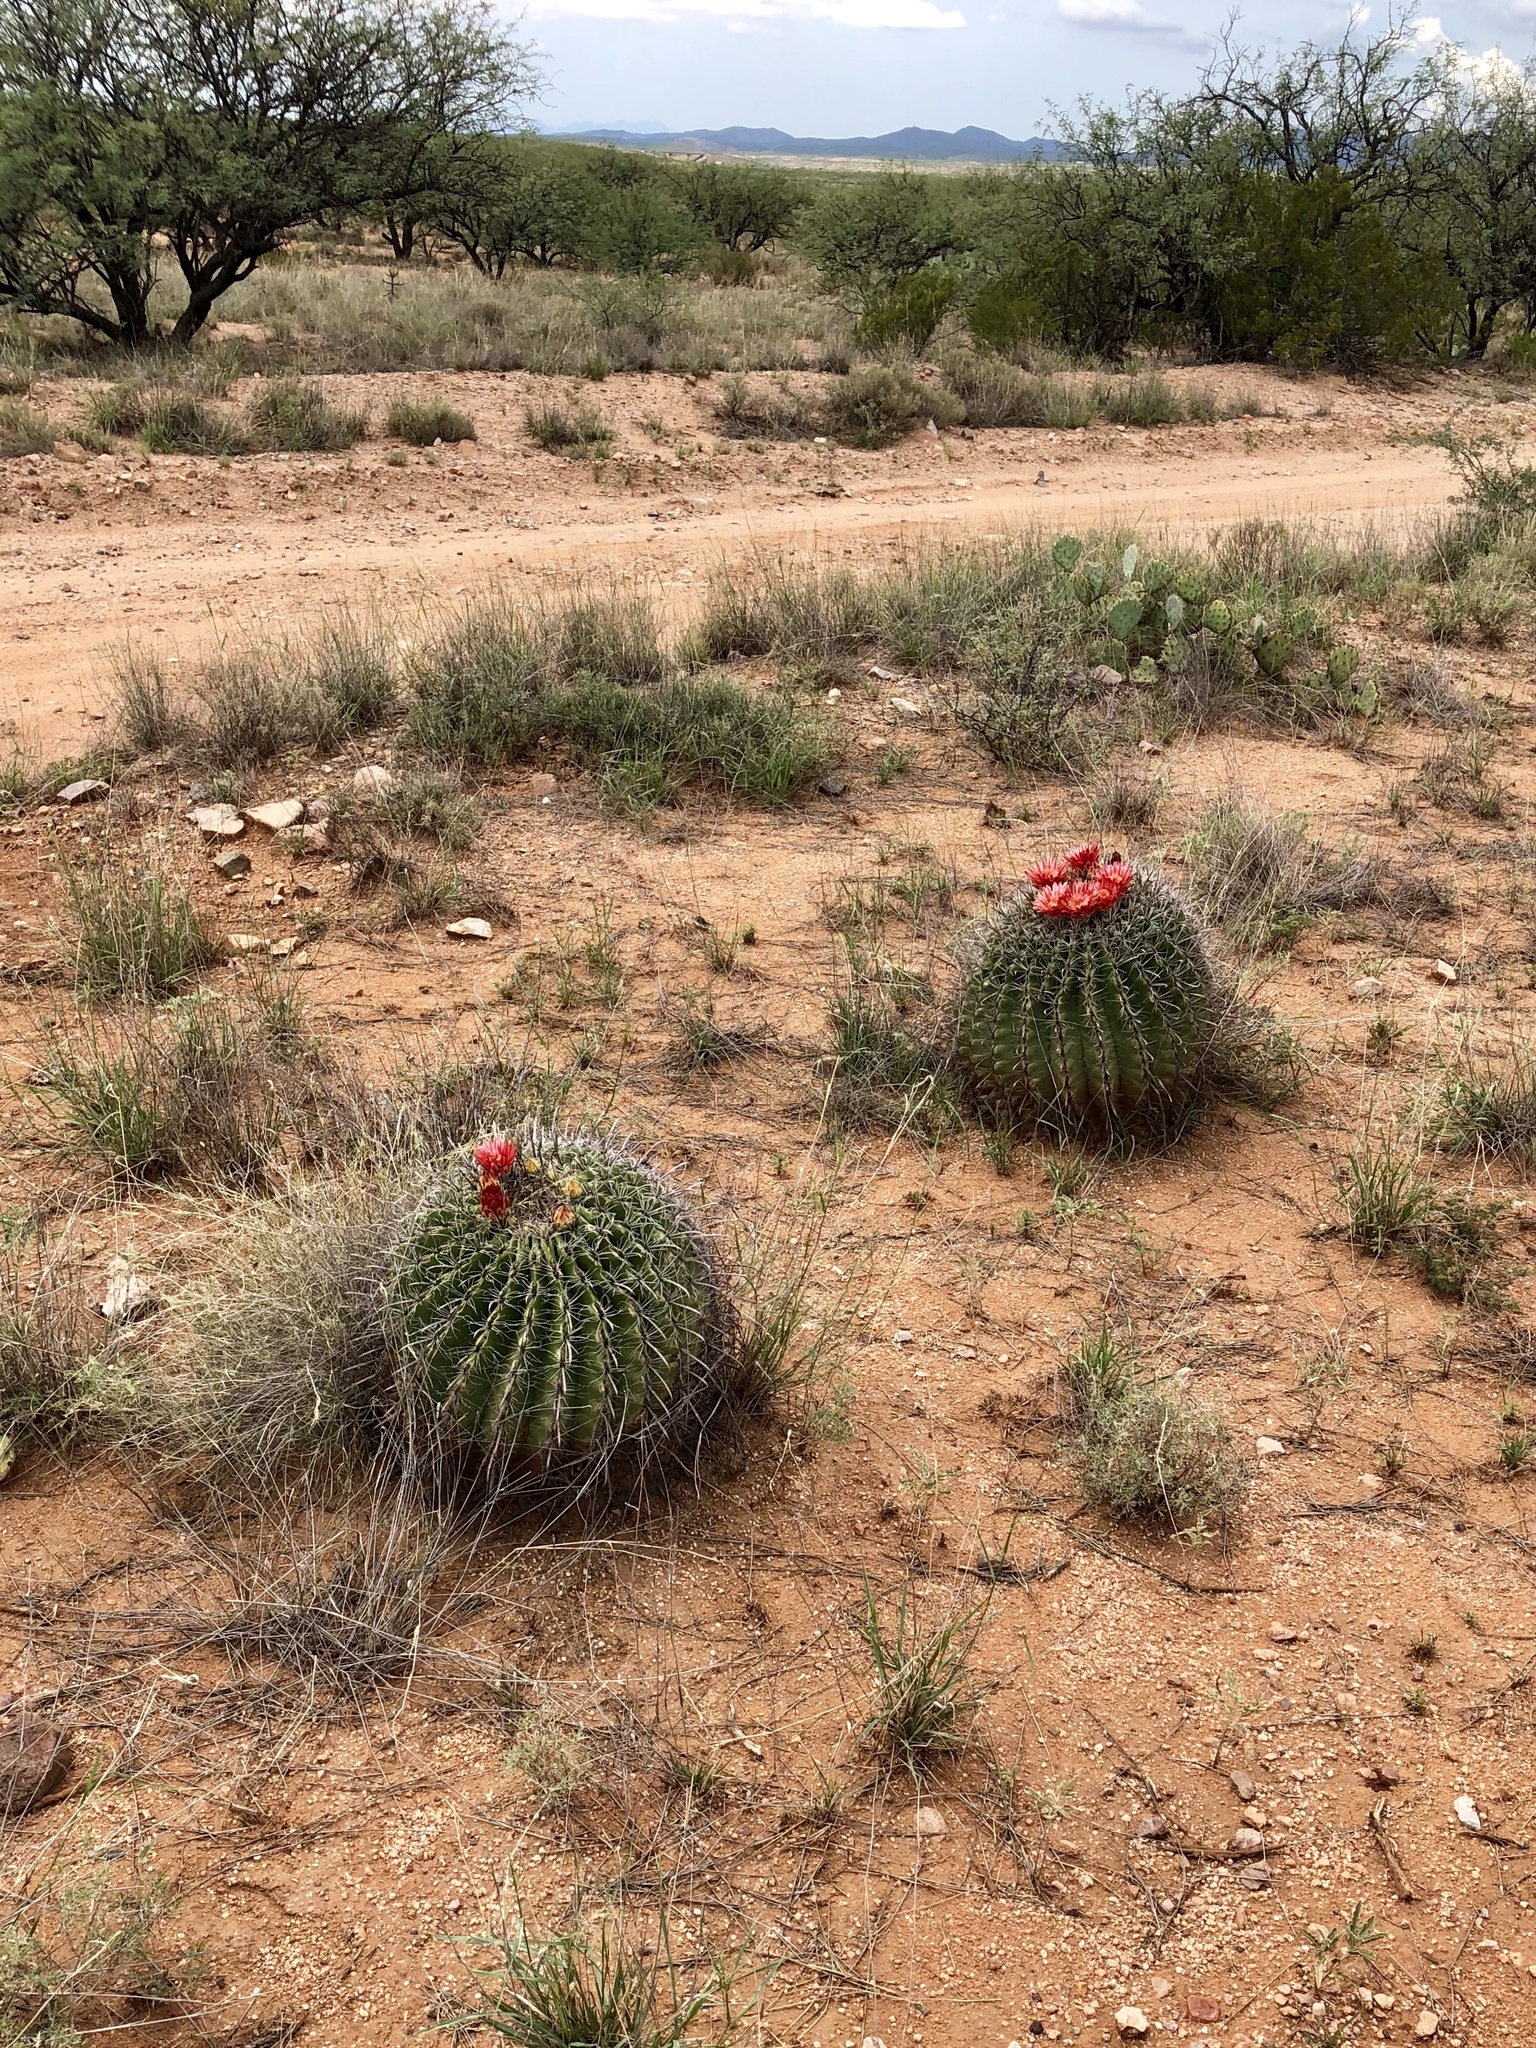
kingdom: Plantae
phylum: Tracheophyta
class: Magnoliopsida
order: Caryophyllales
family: Cactaceae
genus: Ferocactus
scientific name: Ferocactus wislizeni
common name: Candy barrel cactus
